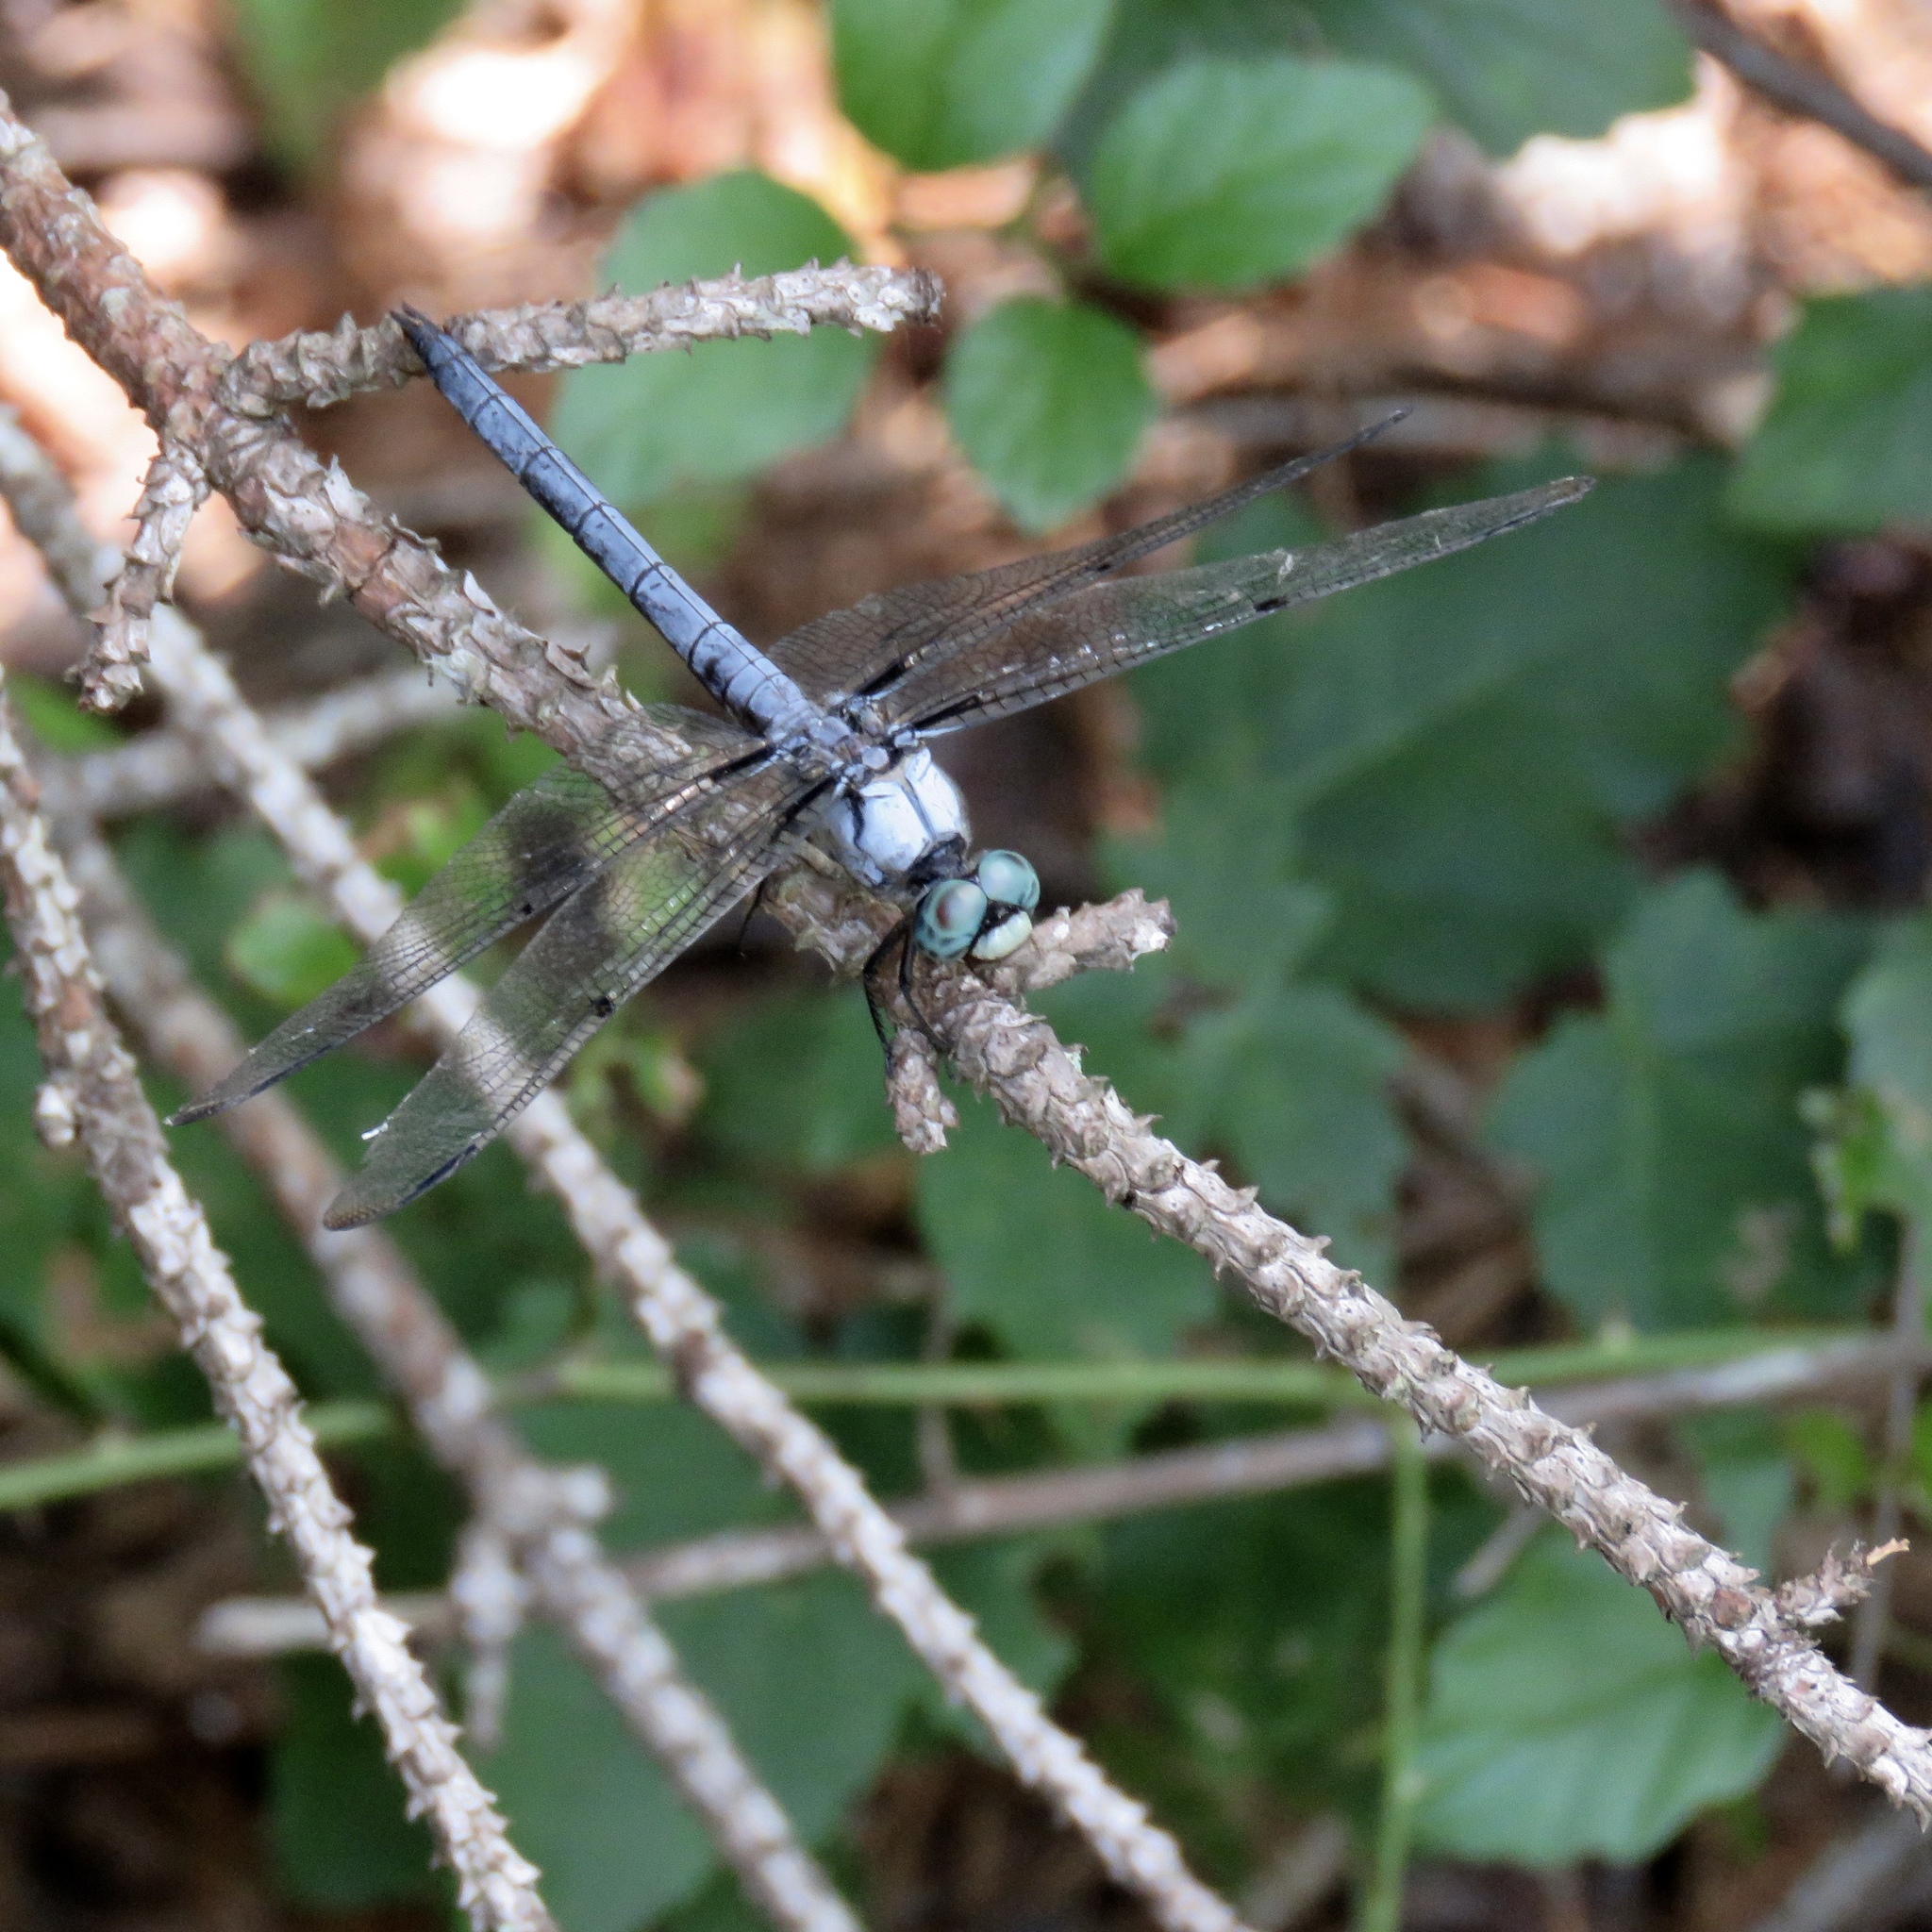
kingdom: Animalia
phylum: Arthropoda
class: Insecta
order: Odonata
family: Libellulidae
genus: Libellula
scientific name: Libellula vibrans
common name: Great blue skimmer
